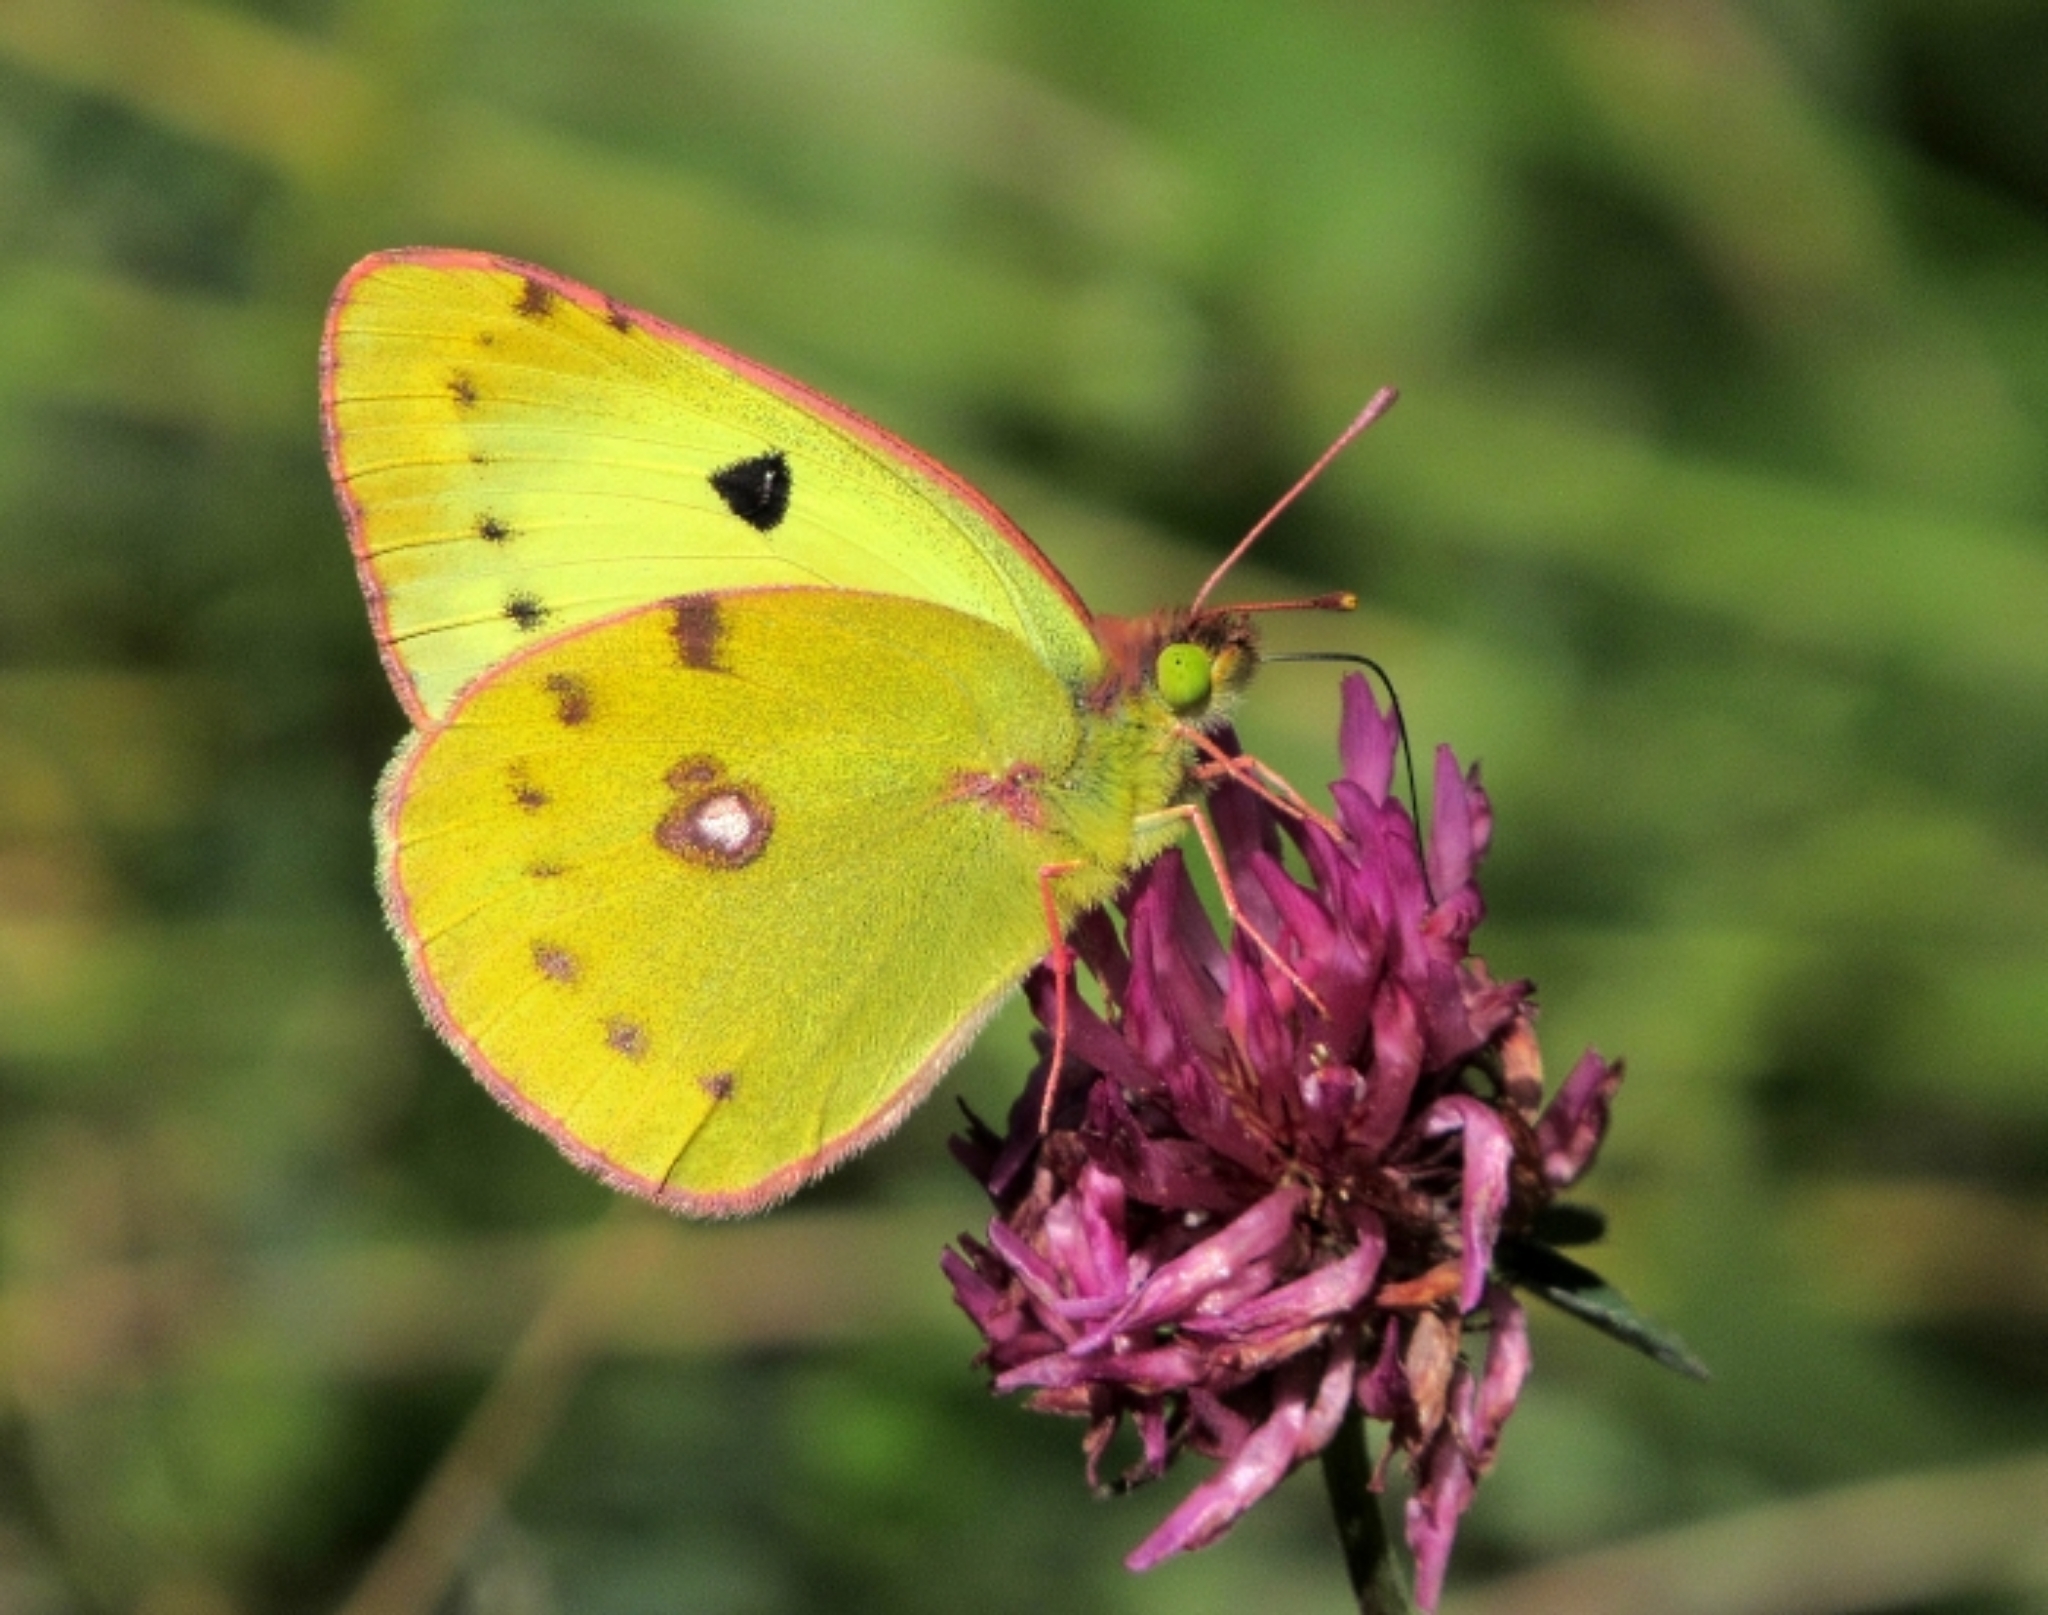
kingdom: Animalia
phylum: Arthropoda
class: Insecta
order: Lepidoptera
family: Pieridae
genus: Colias
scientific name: Colias croceus
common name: Clouded yellow
